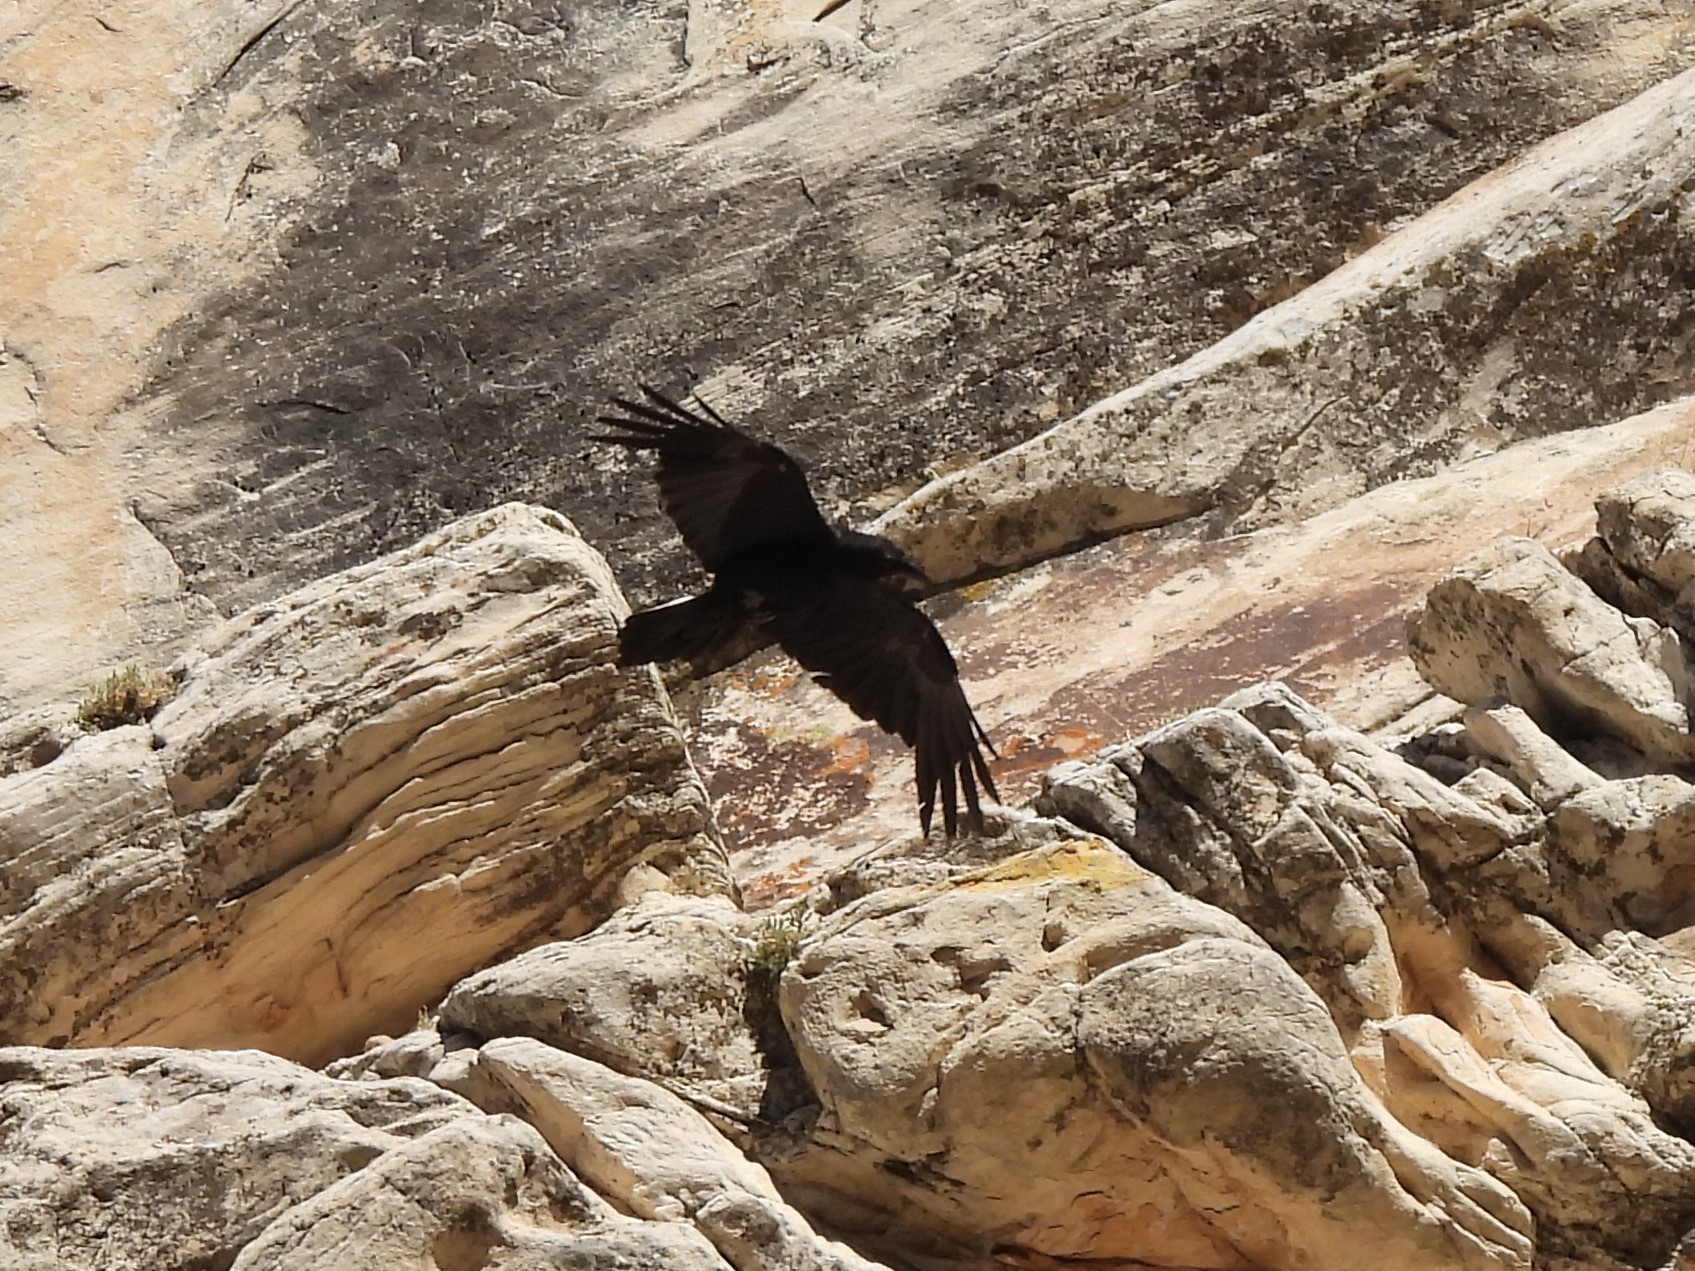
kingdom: Animalia
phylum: Chordata
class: Aves
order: Passeriformes
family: Corvidae
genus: Corvus
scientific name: Corvus corax
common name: Common raven
